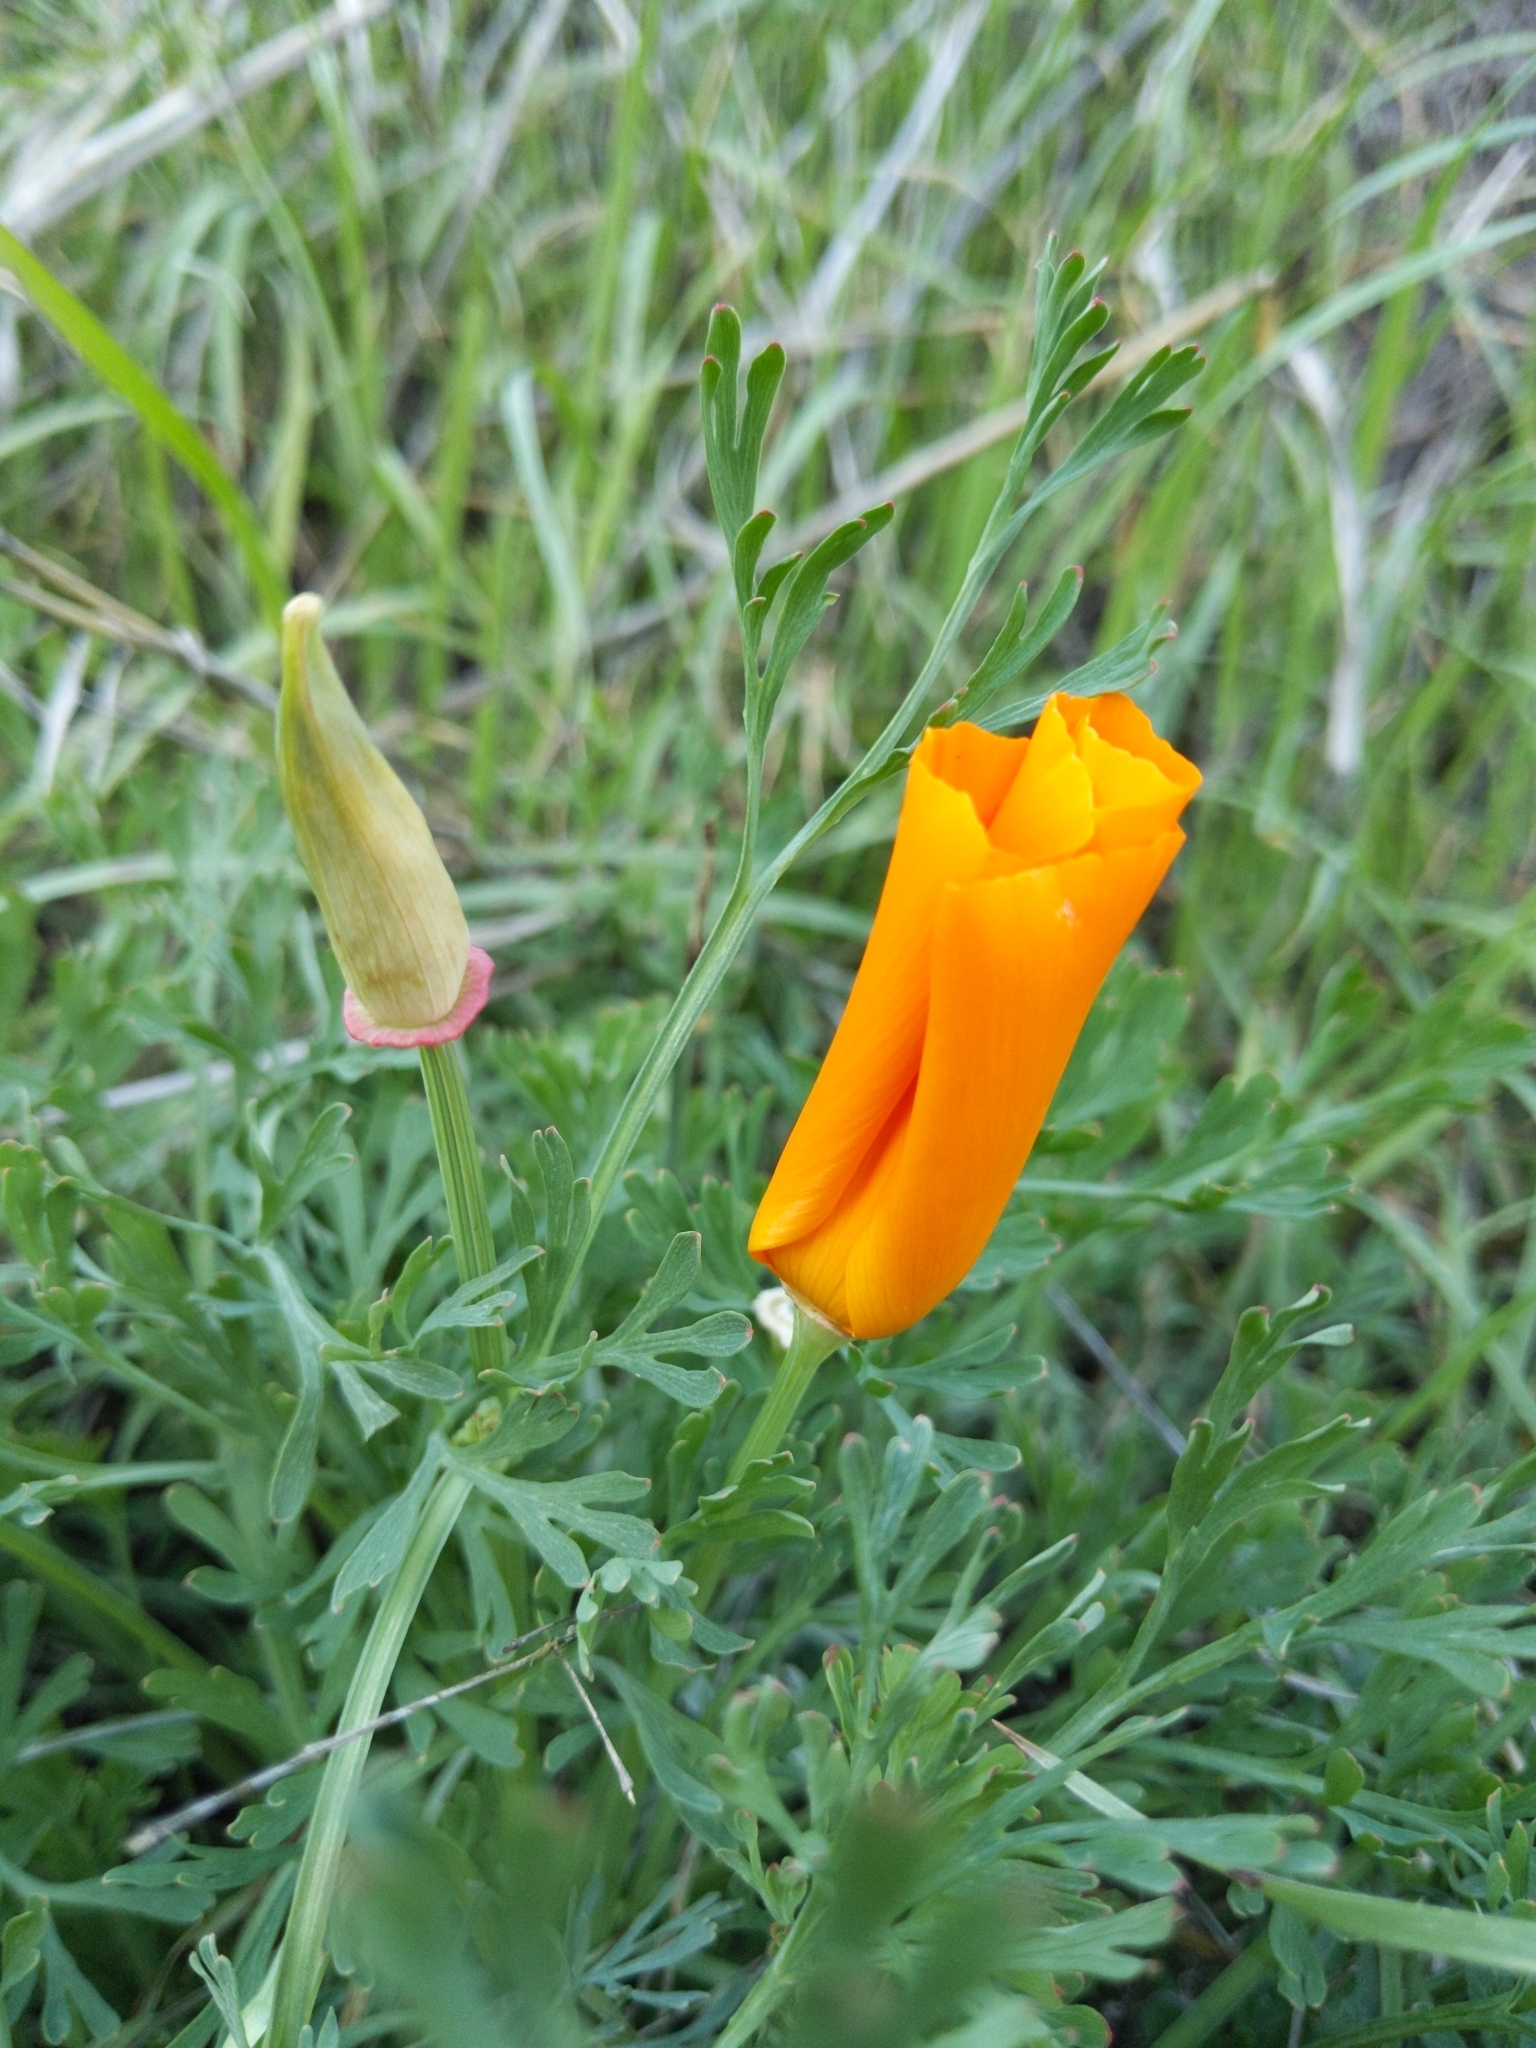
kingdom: Plantae
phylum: Tracheophyta
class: Magnoliopsida
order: Ranunculales
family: Papaveraceae
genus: Eschscholzia
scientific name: Eschscholzia californica
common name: California poppy
